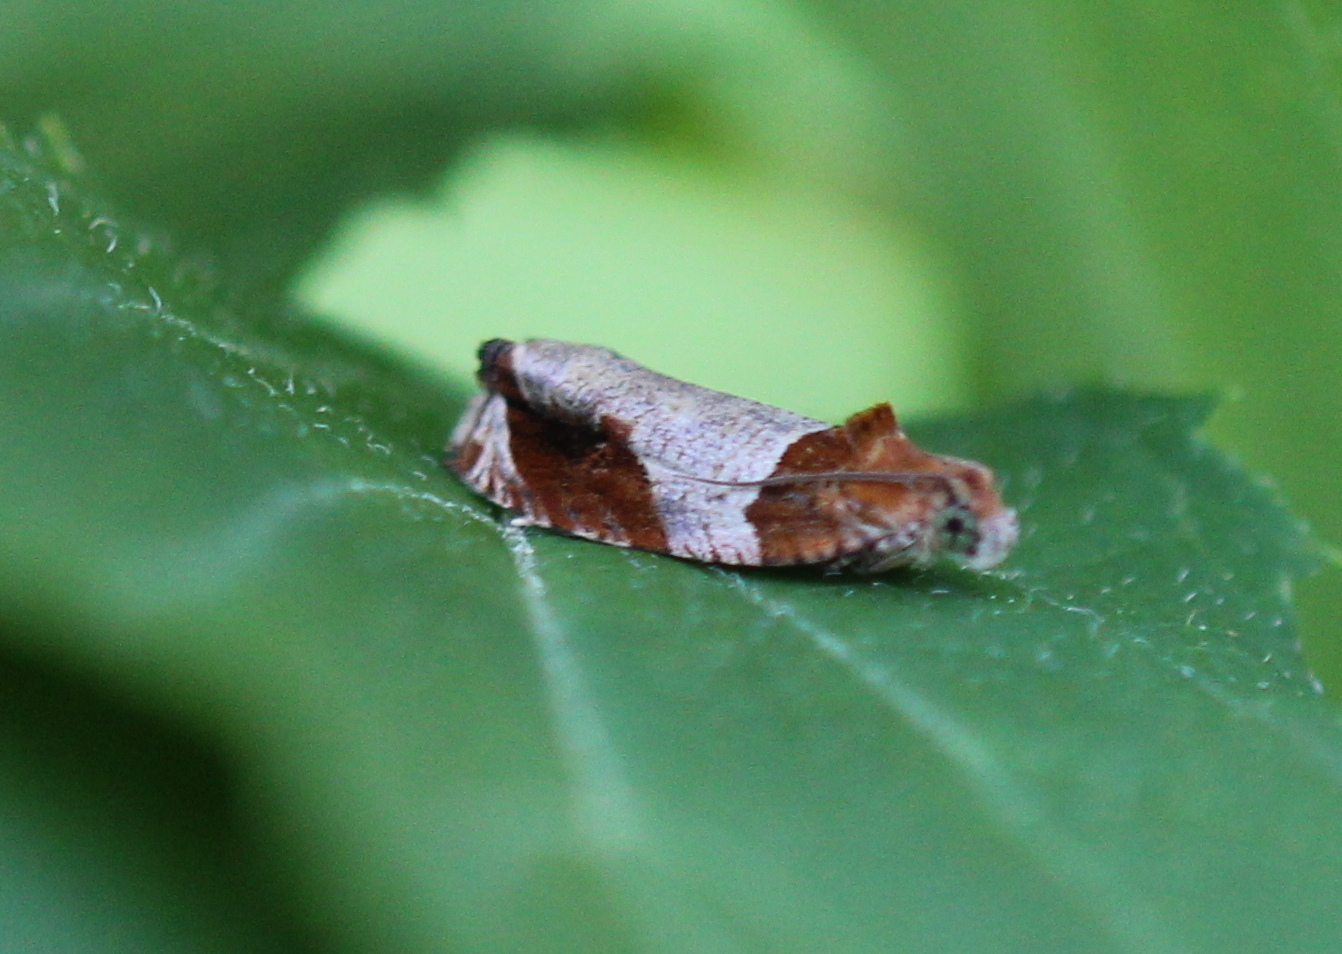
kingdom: Animalia
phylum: Arthropoda
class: Insecta
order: Lepidoptera
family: Tortricidae
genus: Olethreutes
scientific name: Olethreutes ferriferana
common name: Hydrangea leaftier moth
